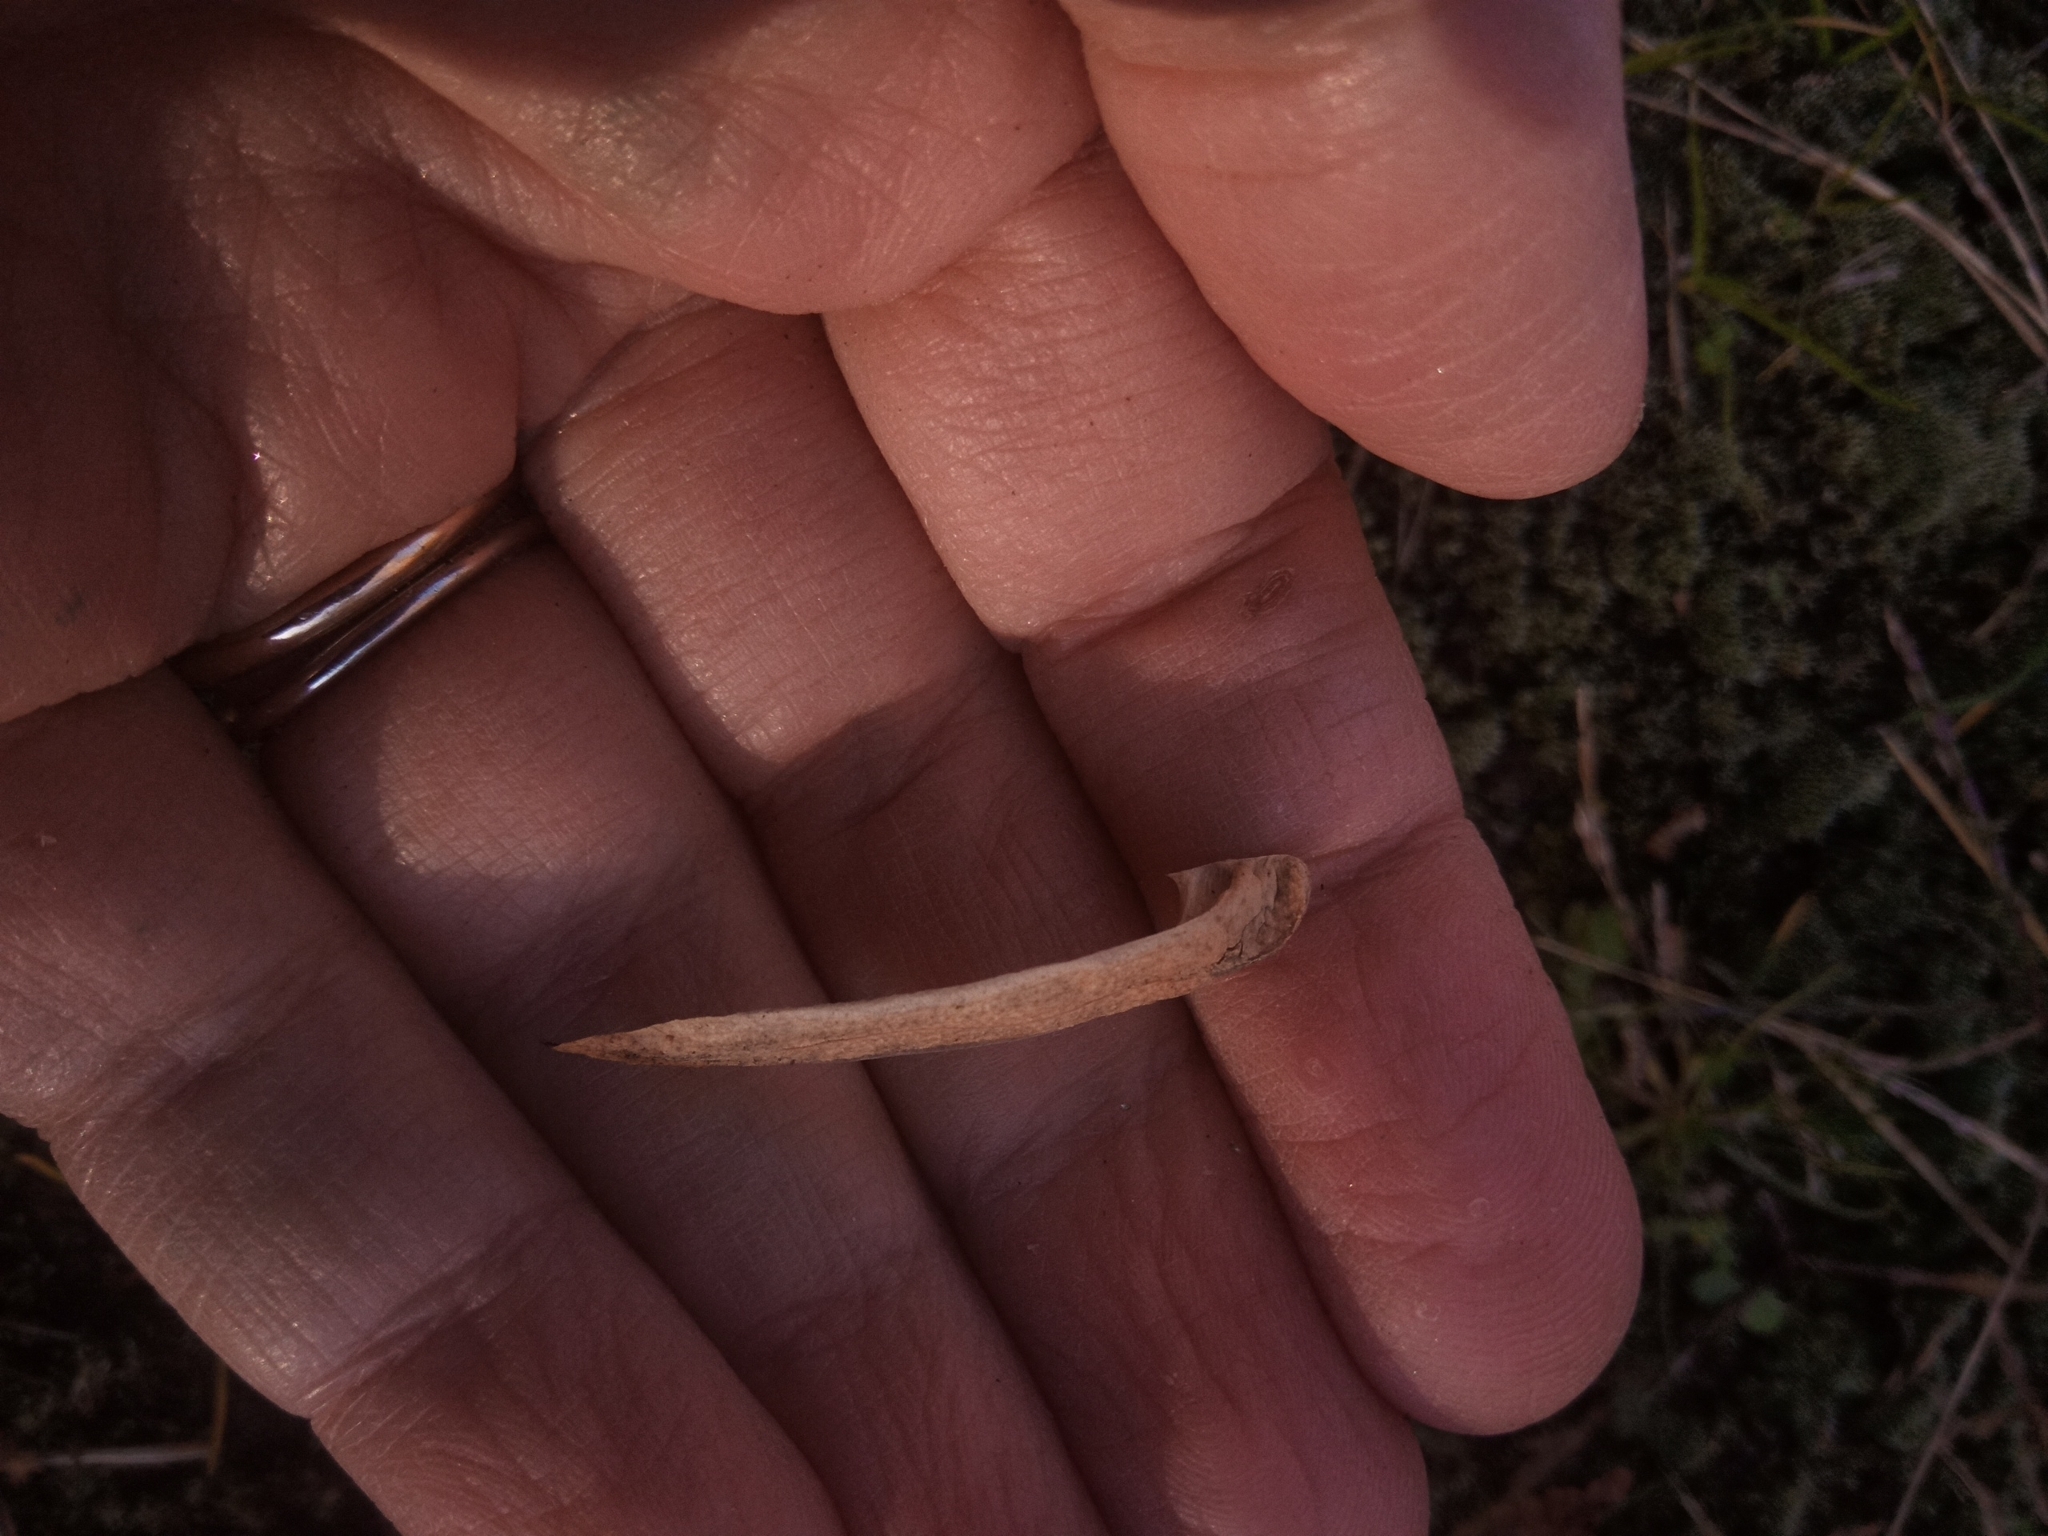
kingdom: Plantae
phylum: Tracheophyta
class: Magnoliopsida
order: Magnoliales
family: Magnoliaceae
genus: Liriodendron
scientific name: Liriodendron tulipifera
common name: Tulip tree
